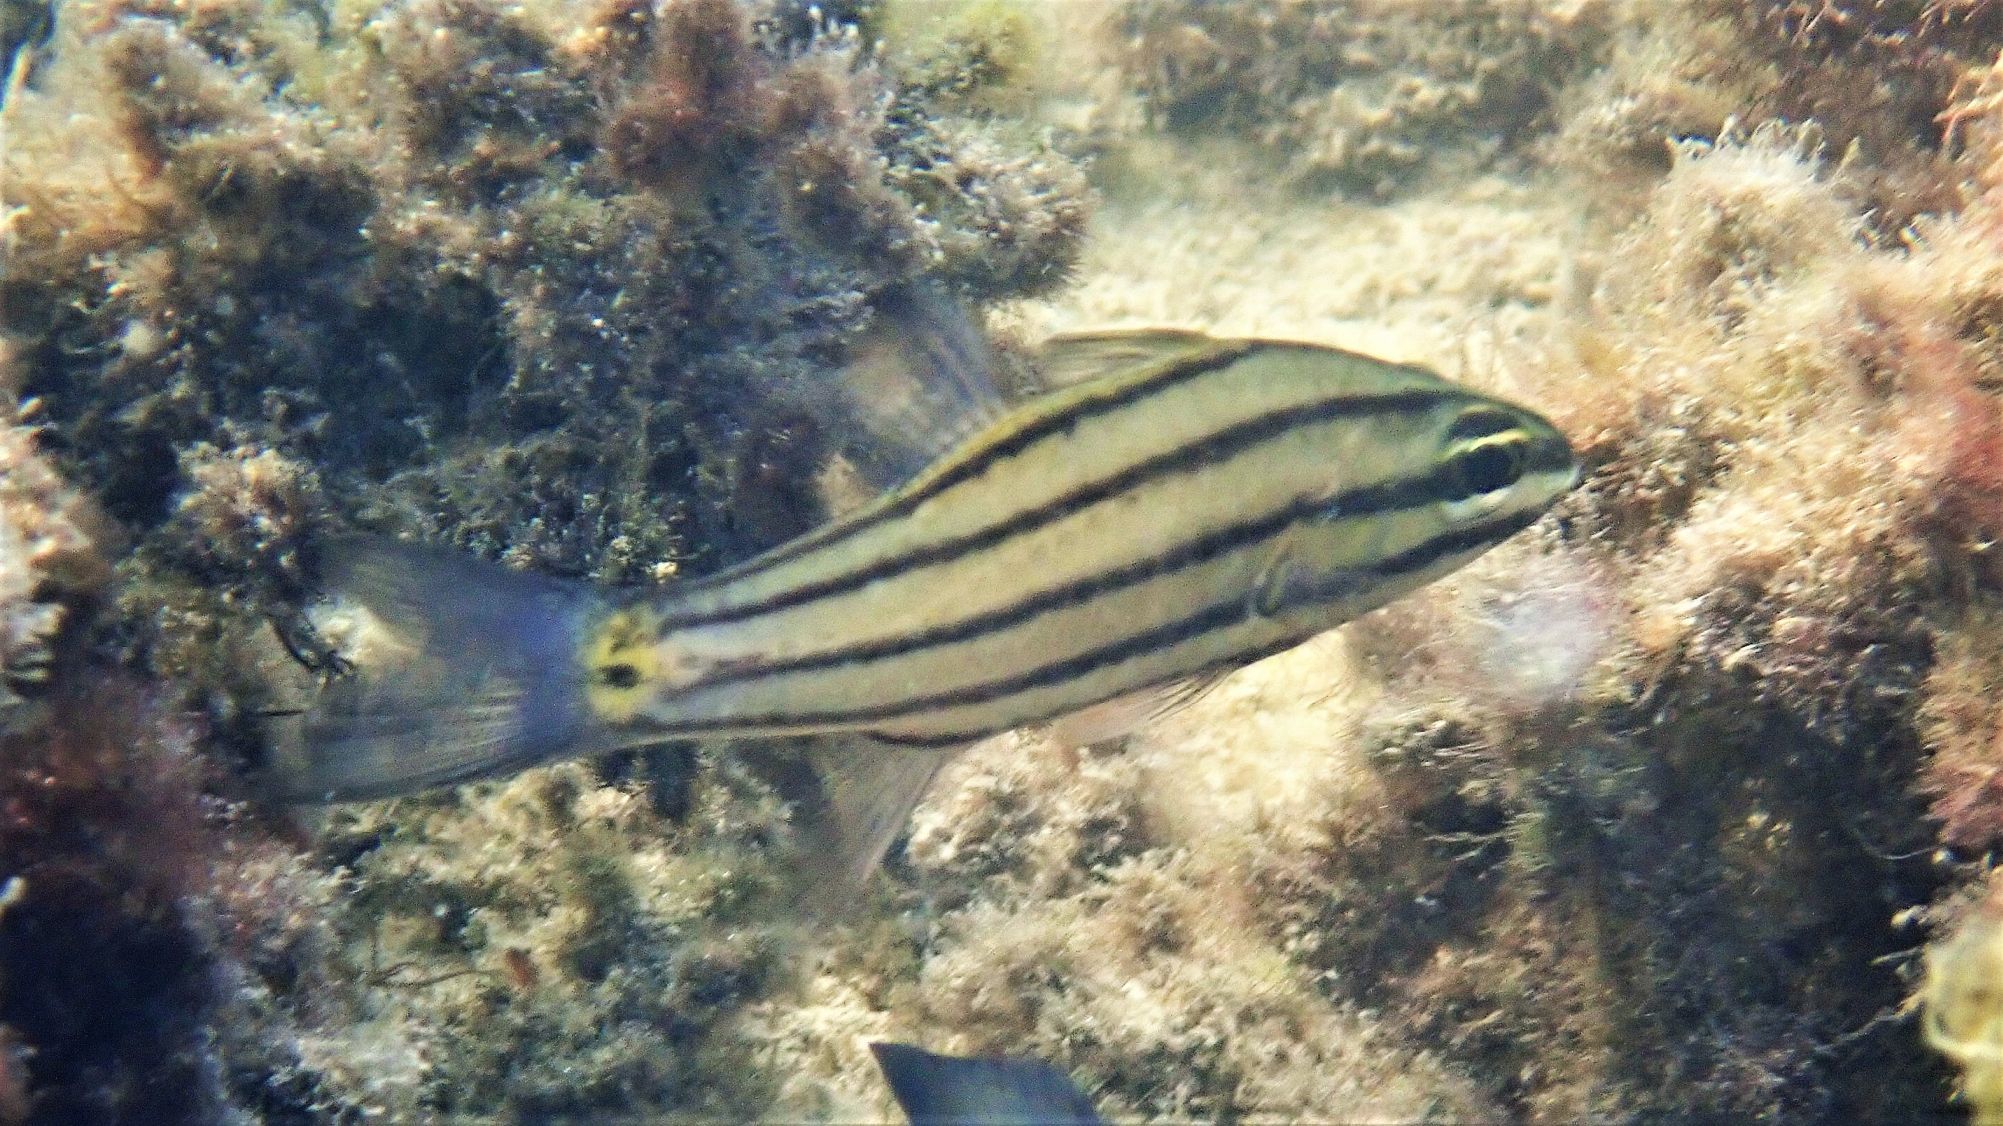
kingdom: Animalia
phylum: Chordata
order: Perciformes
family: Apogonidae
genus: Cheilodipterus
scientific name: Cheilodipterus quinquelineatus
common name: Five-lined cardinalfish
